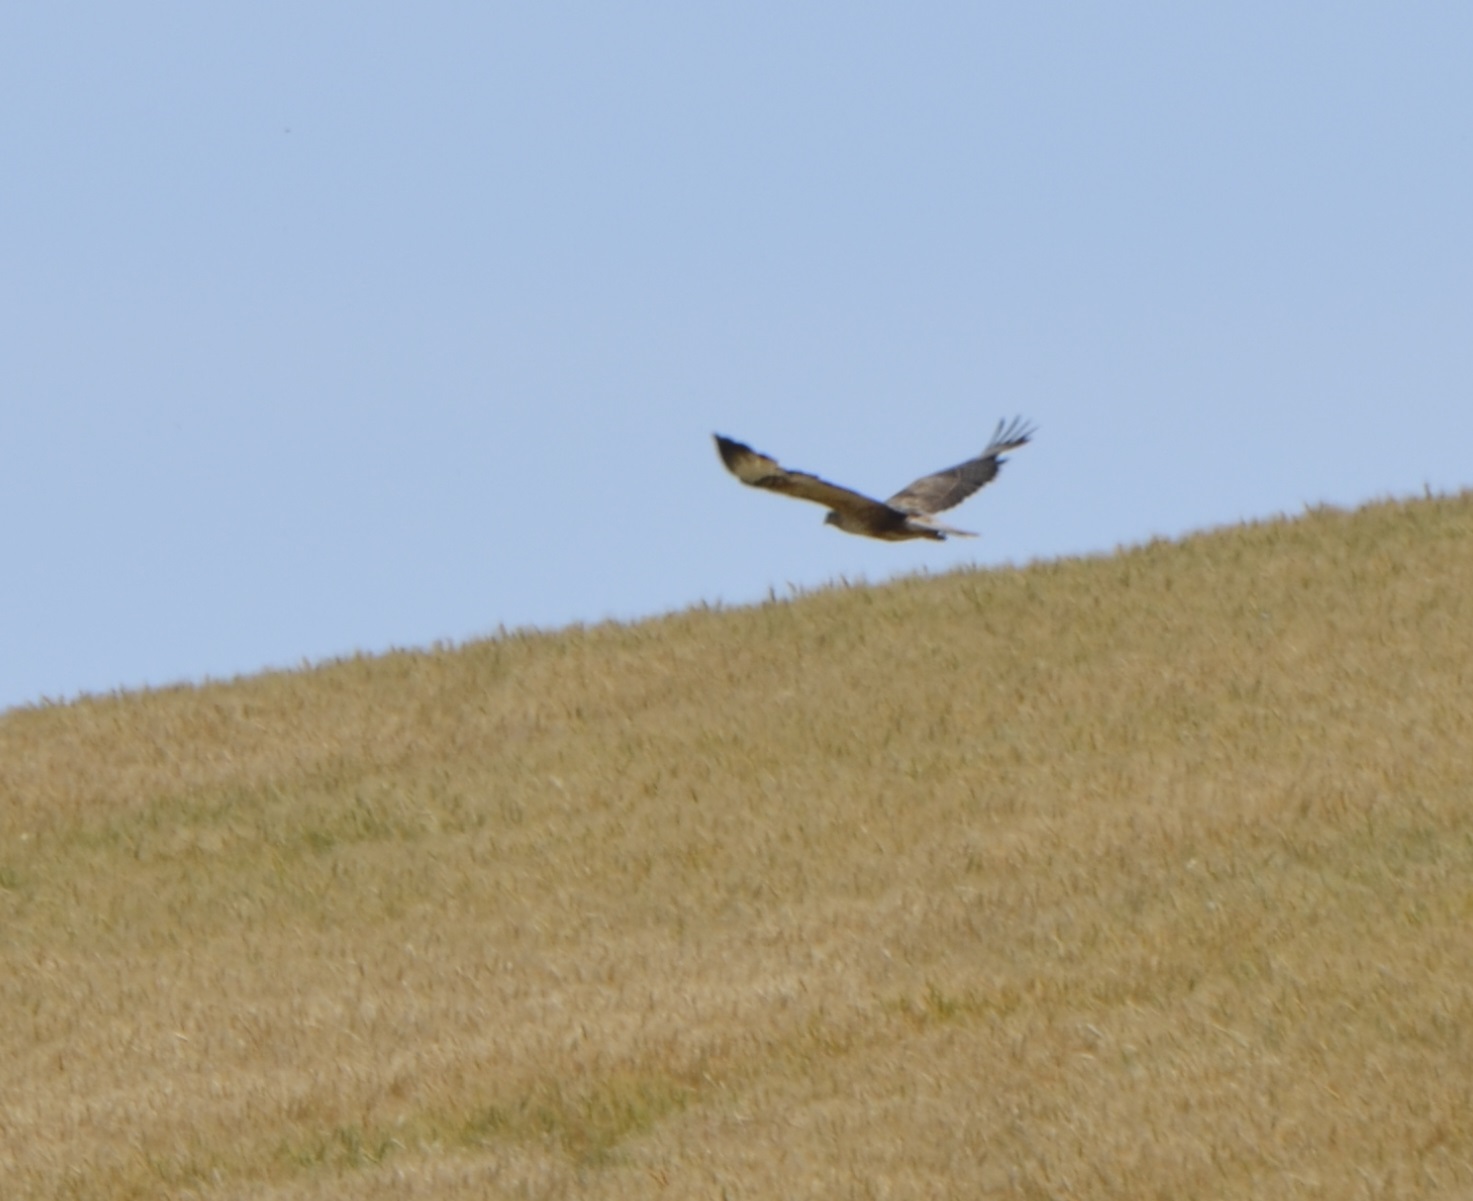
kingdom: Animalia
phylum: Chordata
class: Aves
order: Accipitriformes
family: Accipitridae
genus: Buteo
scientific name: Buteo rufinus
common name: Long-legged buzzard
